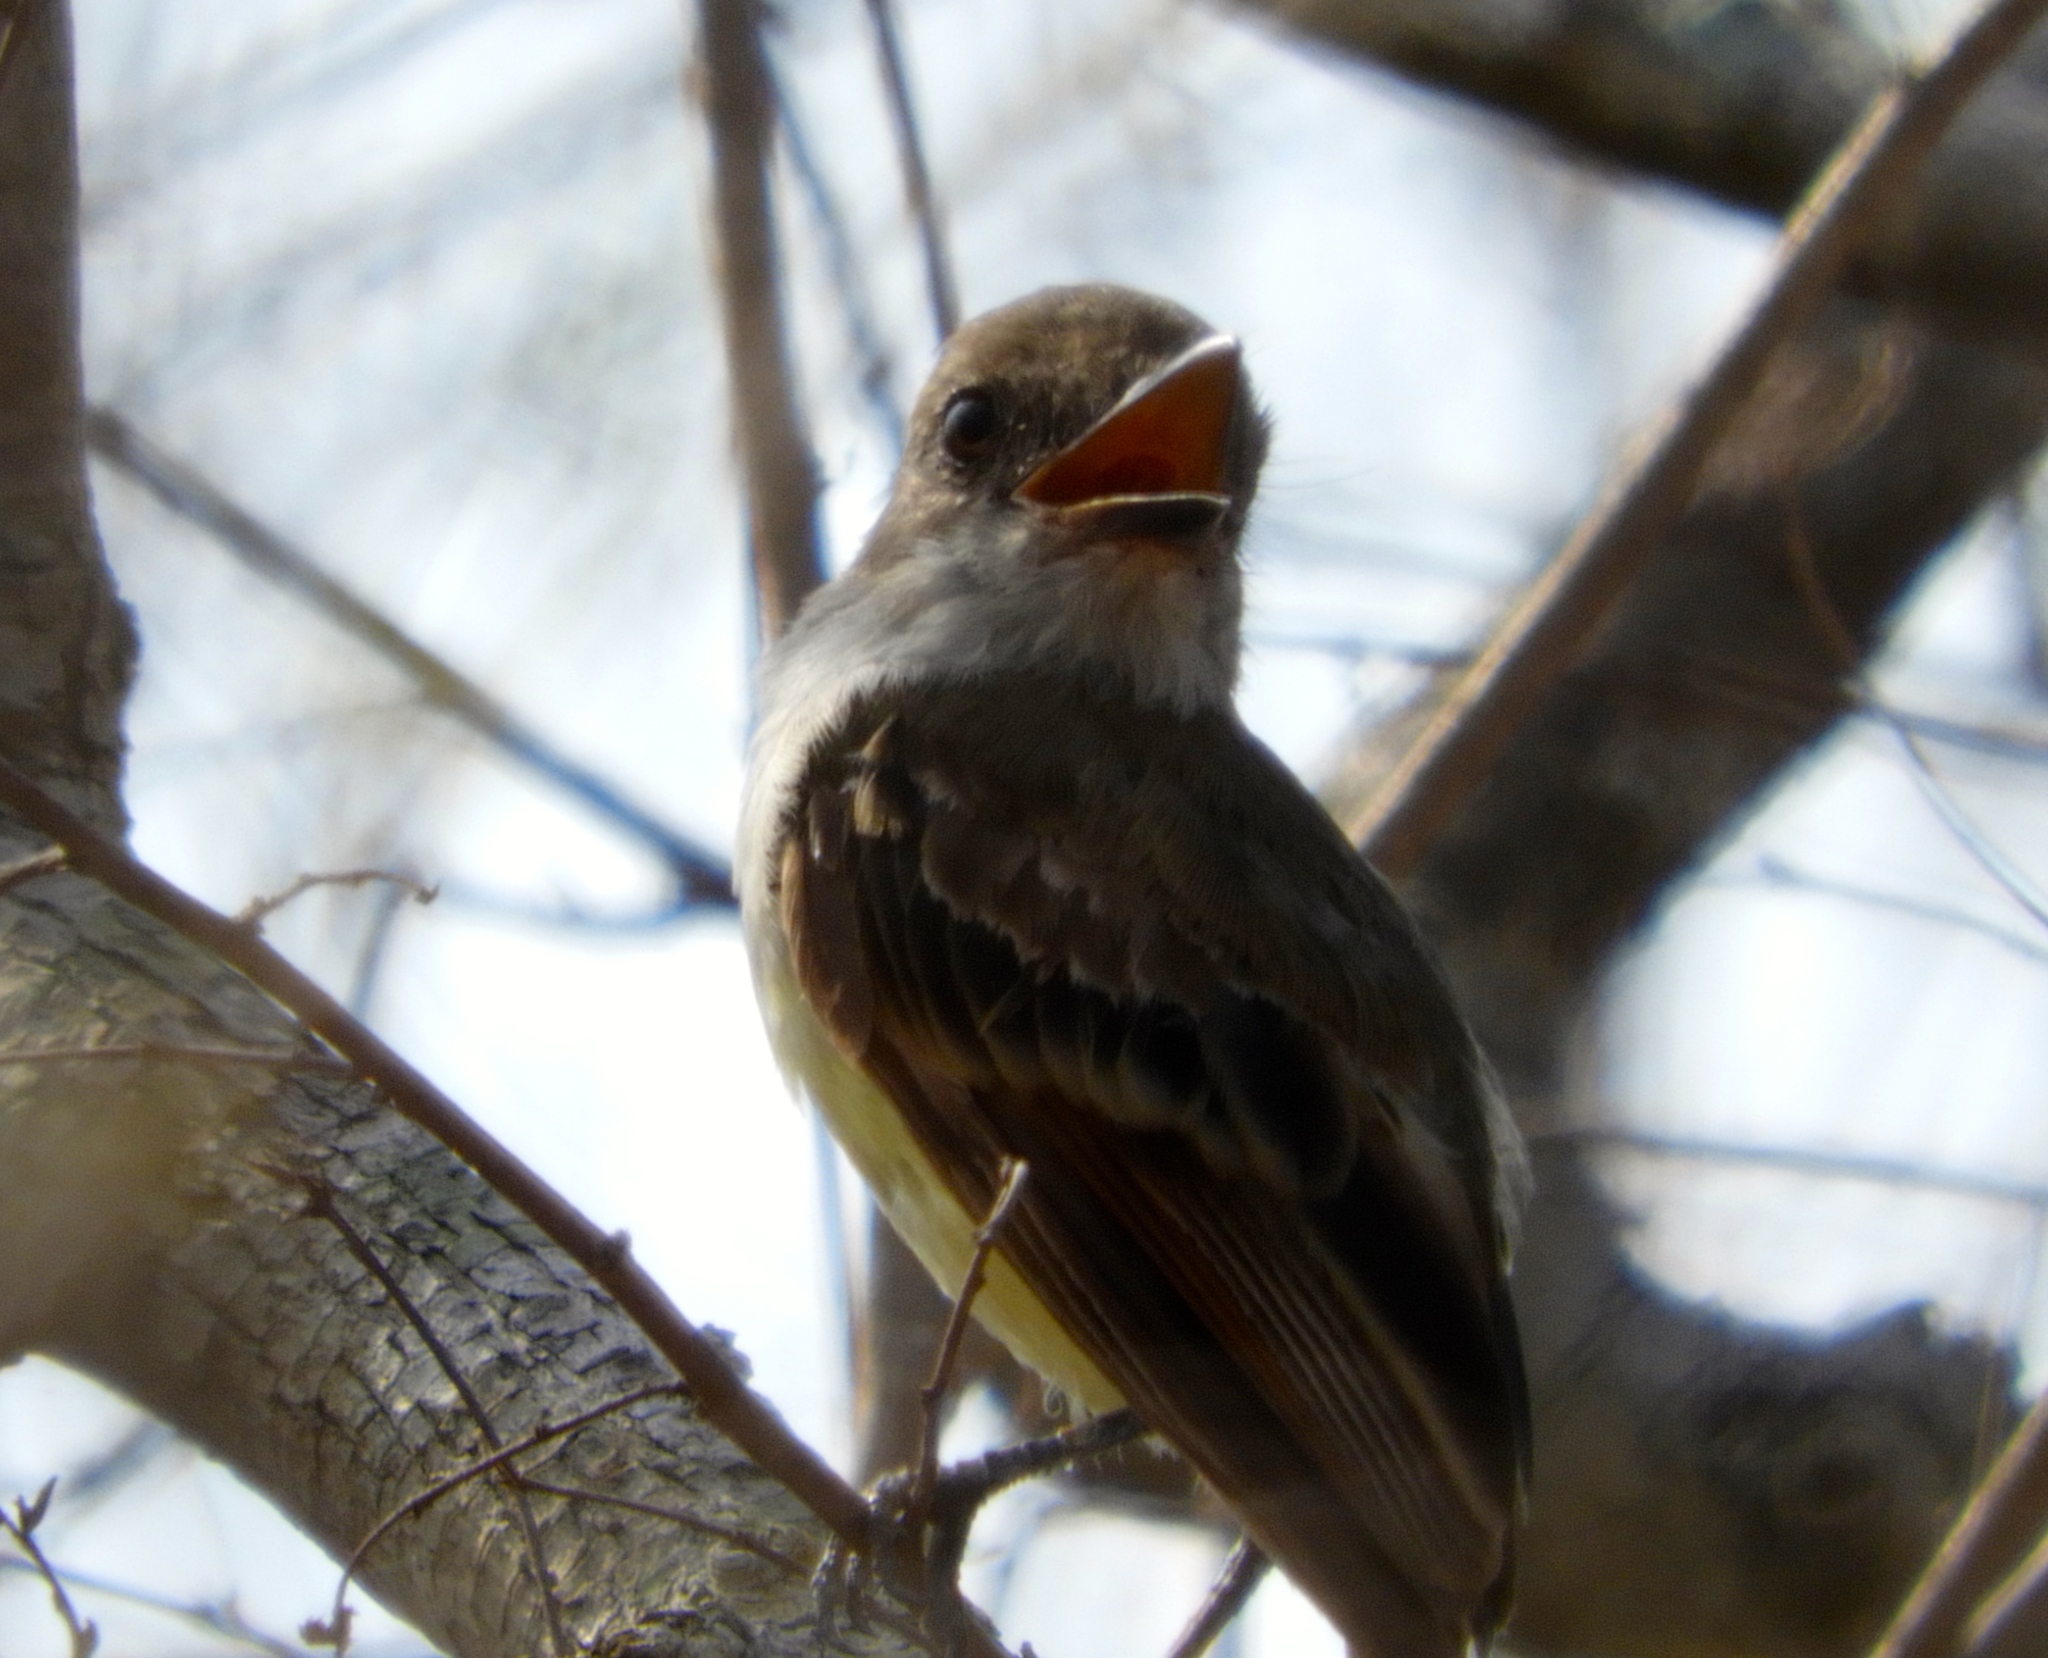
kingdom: Animalia
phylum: Chordata
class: Aves
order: Passeriformes
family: Tyrannidae
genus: Myiarchus
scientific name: Myiarchus
